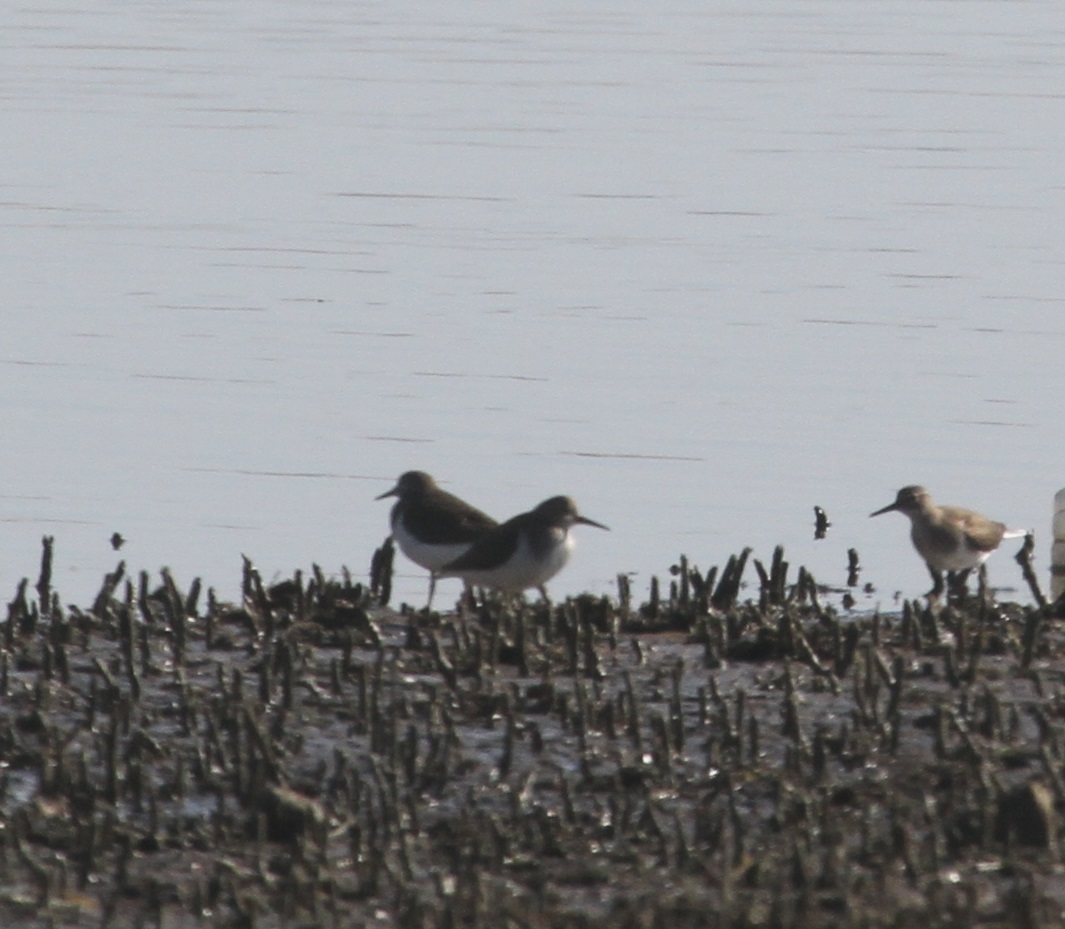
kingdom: Animalia
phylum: Chordata
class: Aves
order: Charadriiformes
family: Scolopacidae
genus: Actitis
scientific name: Actitis hypoleucos
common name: Common sandpiper
